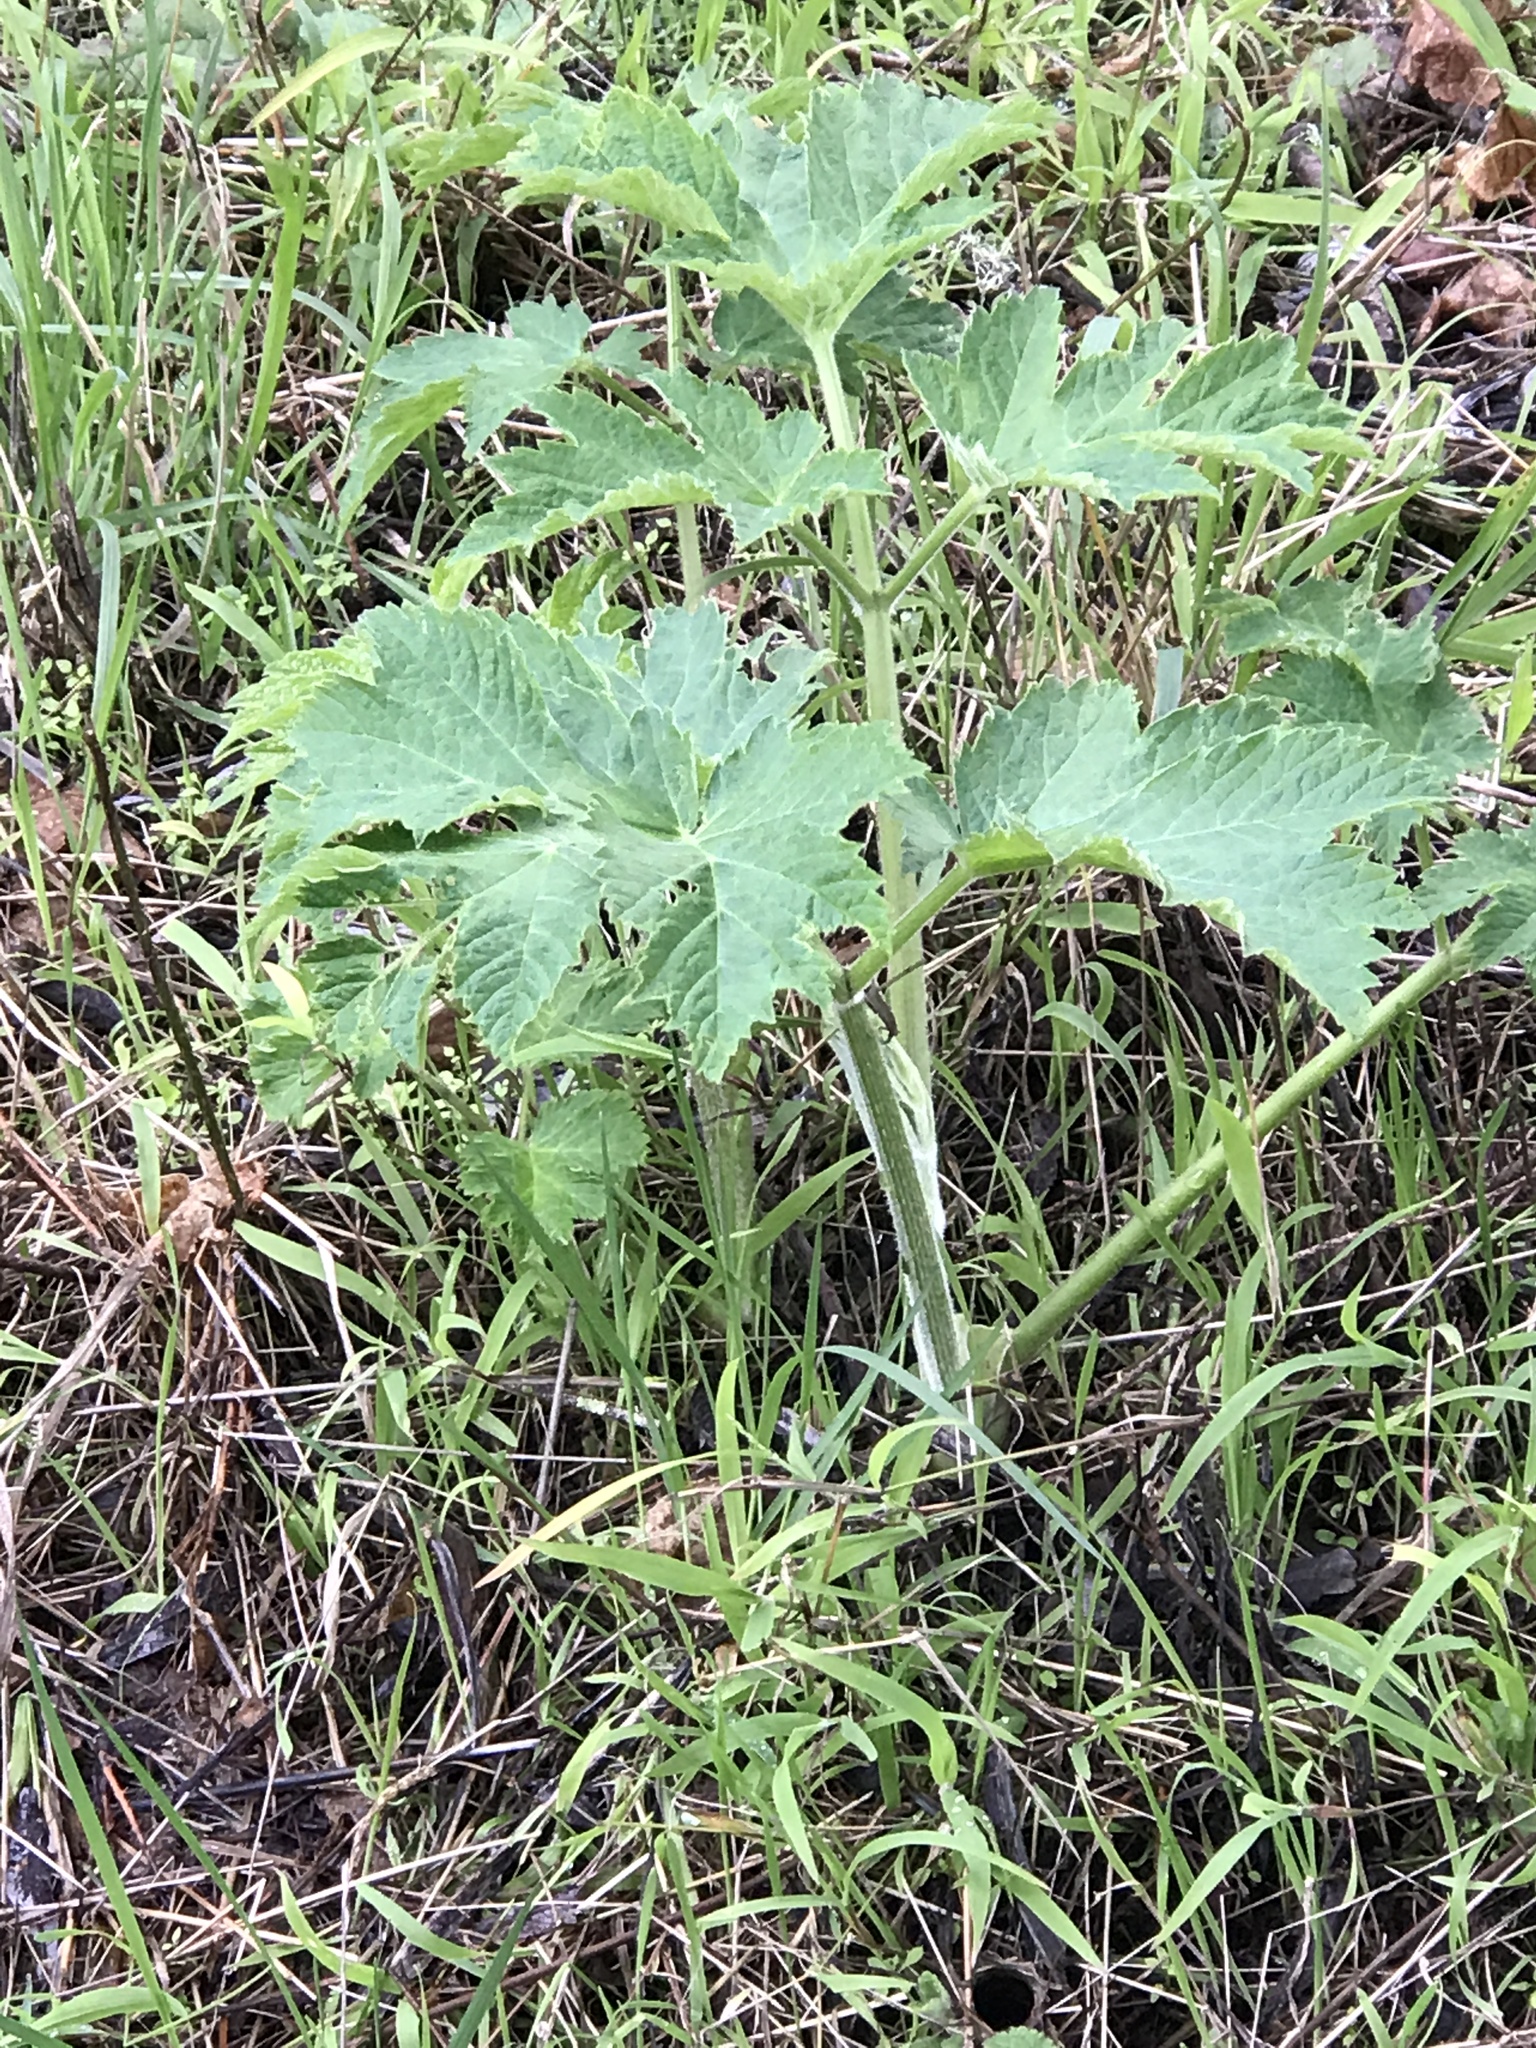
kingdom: Plantae
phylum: Tracheophyta
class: Magnoliopsida
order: Apiales
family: Apiaceae
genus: Heracleum
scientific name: Heracleum maximum
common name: American cow parsnip
